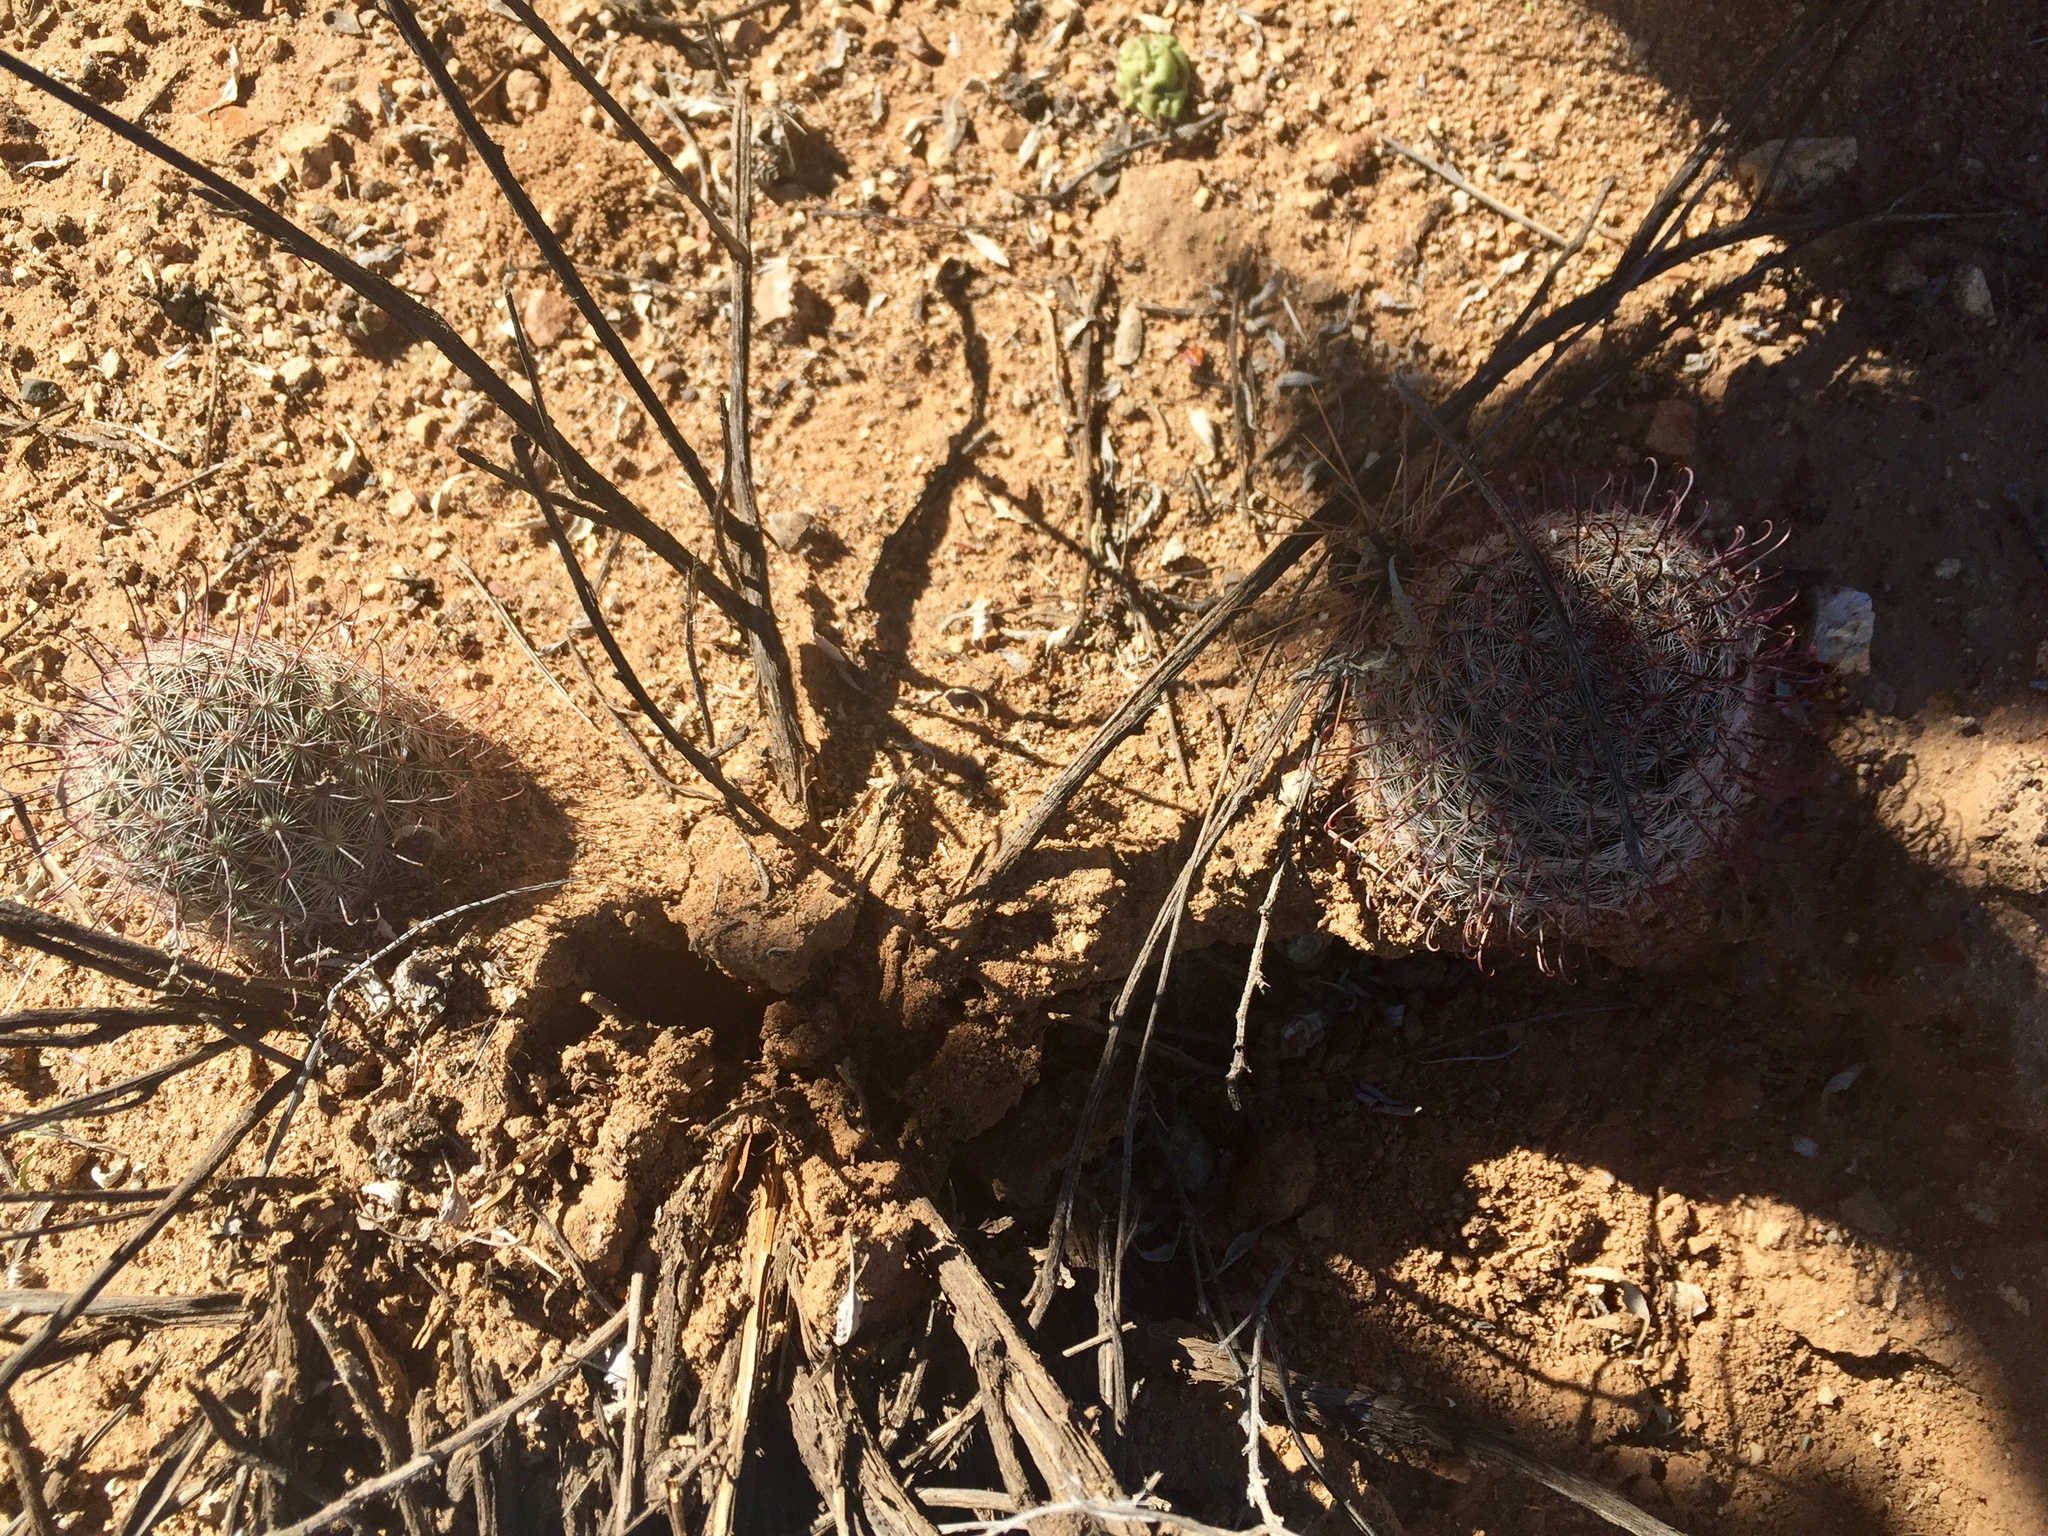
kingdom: Plantae
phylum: Tracheophyta
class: Magnoliopsida
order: Caryophyllales
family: Cactaceae
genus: Cochemiea
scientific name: Cochemiea grahamii
